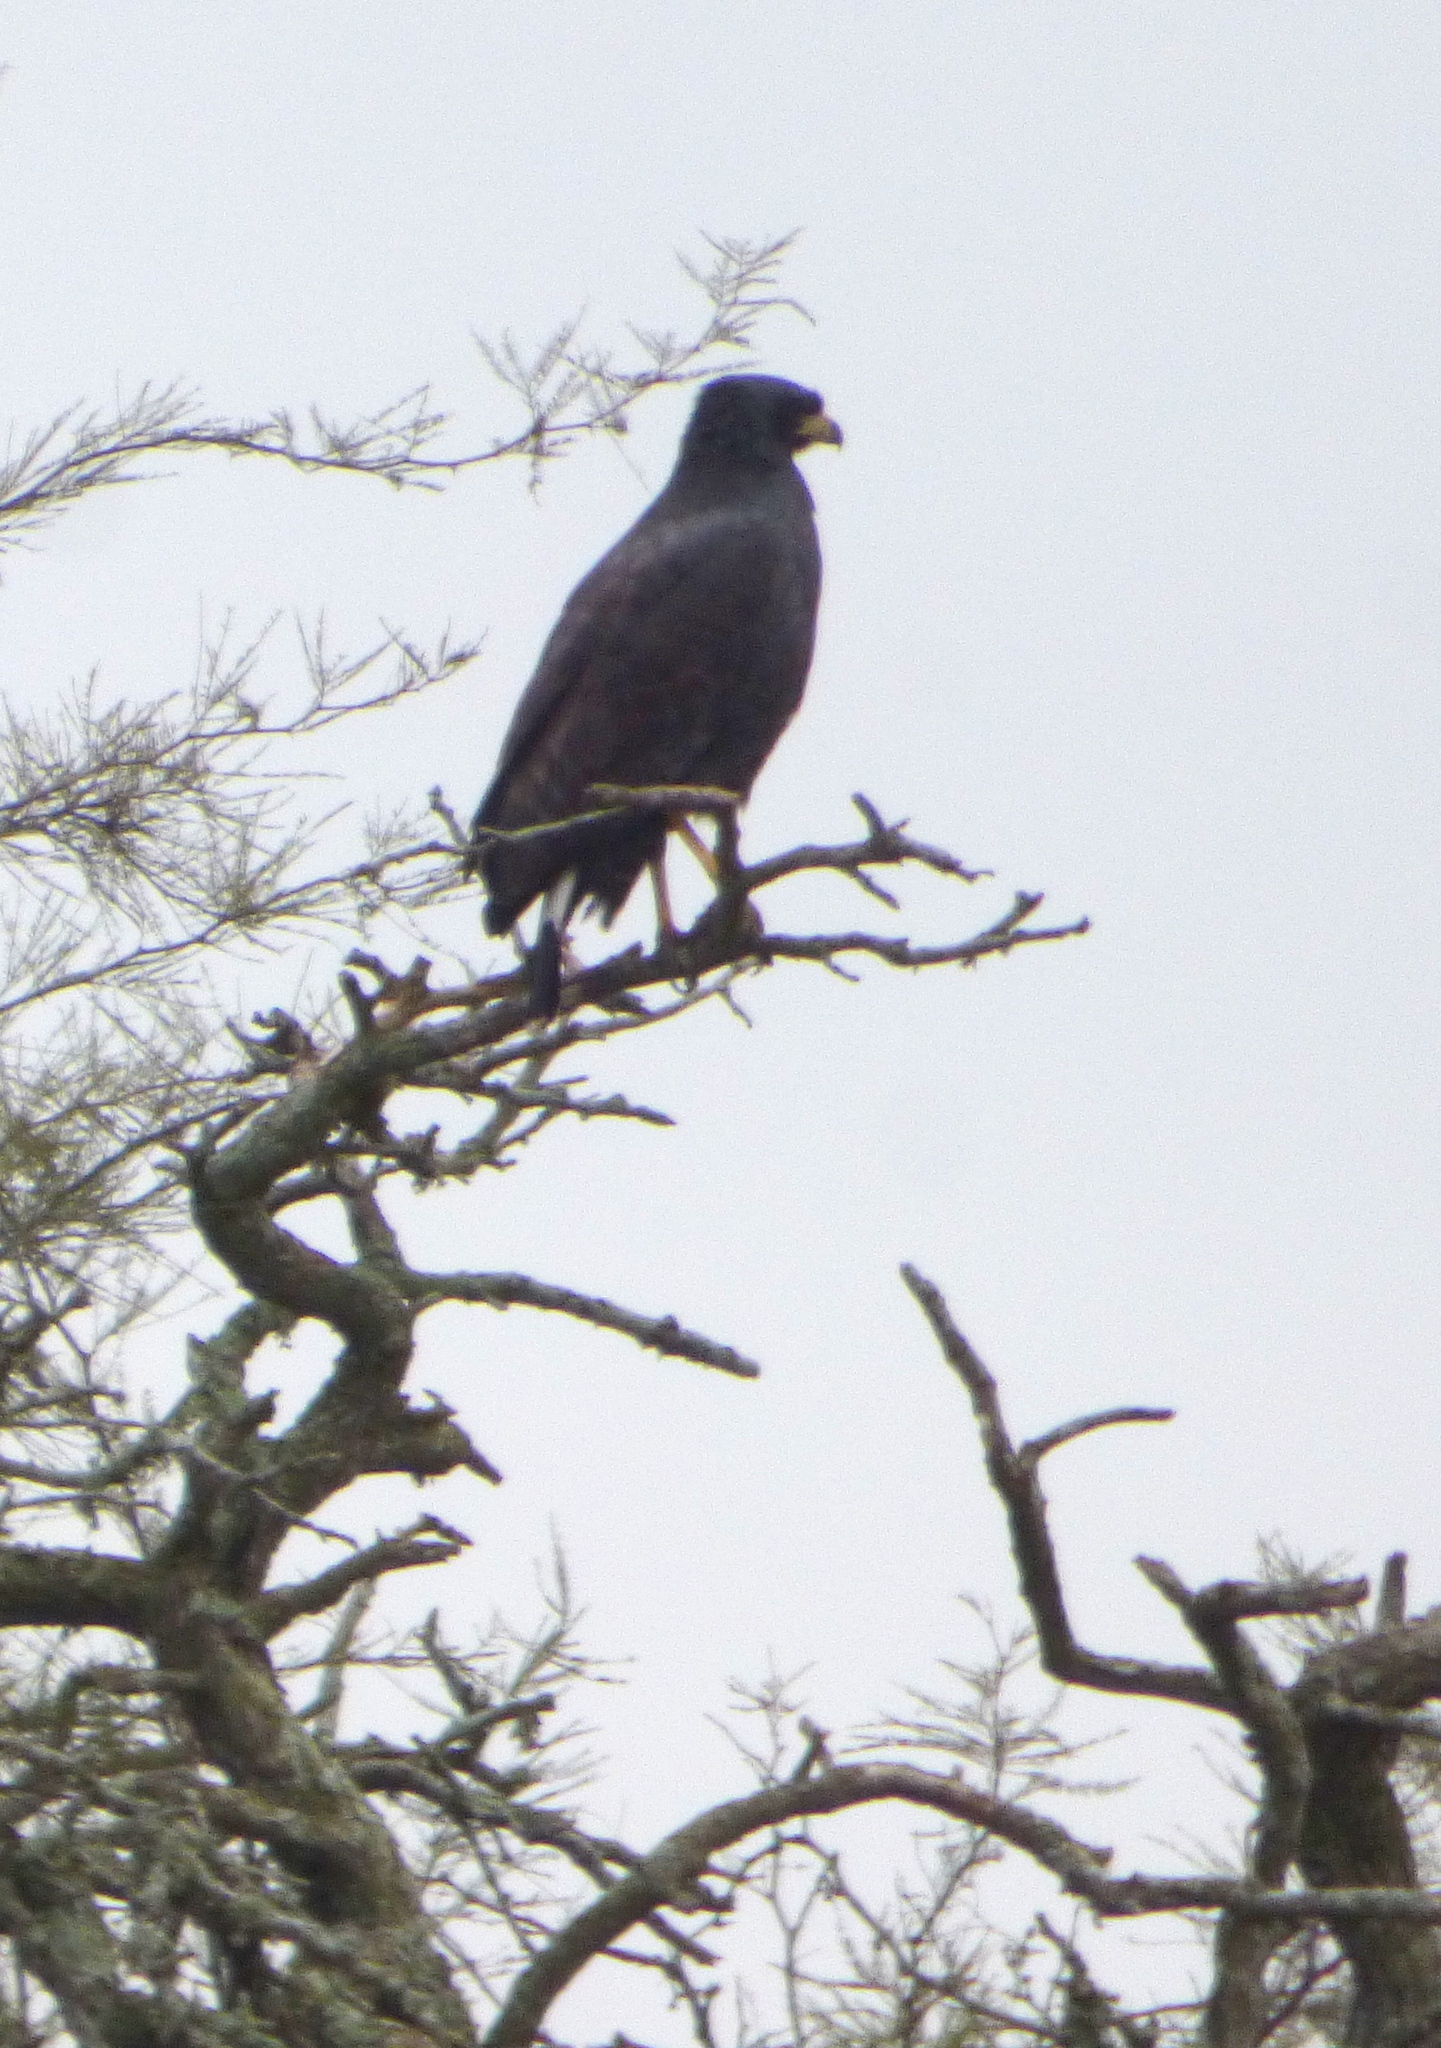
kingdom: Animalia
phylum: Chordata
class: Aves
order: Accipitriformes
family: Accipitridae
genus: Buteogallus
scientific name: Buteogallus urubitinga
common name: Great black hawk
